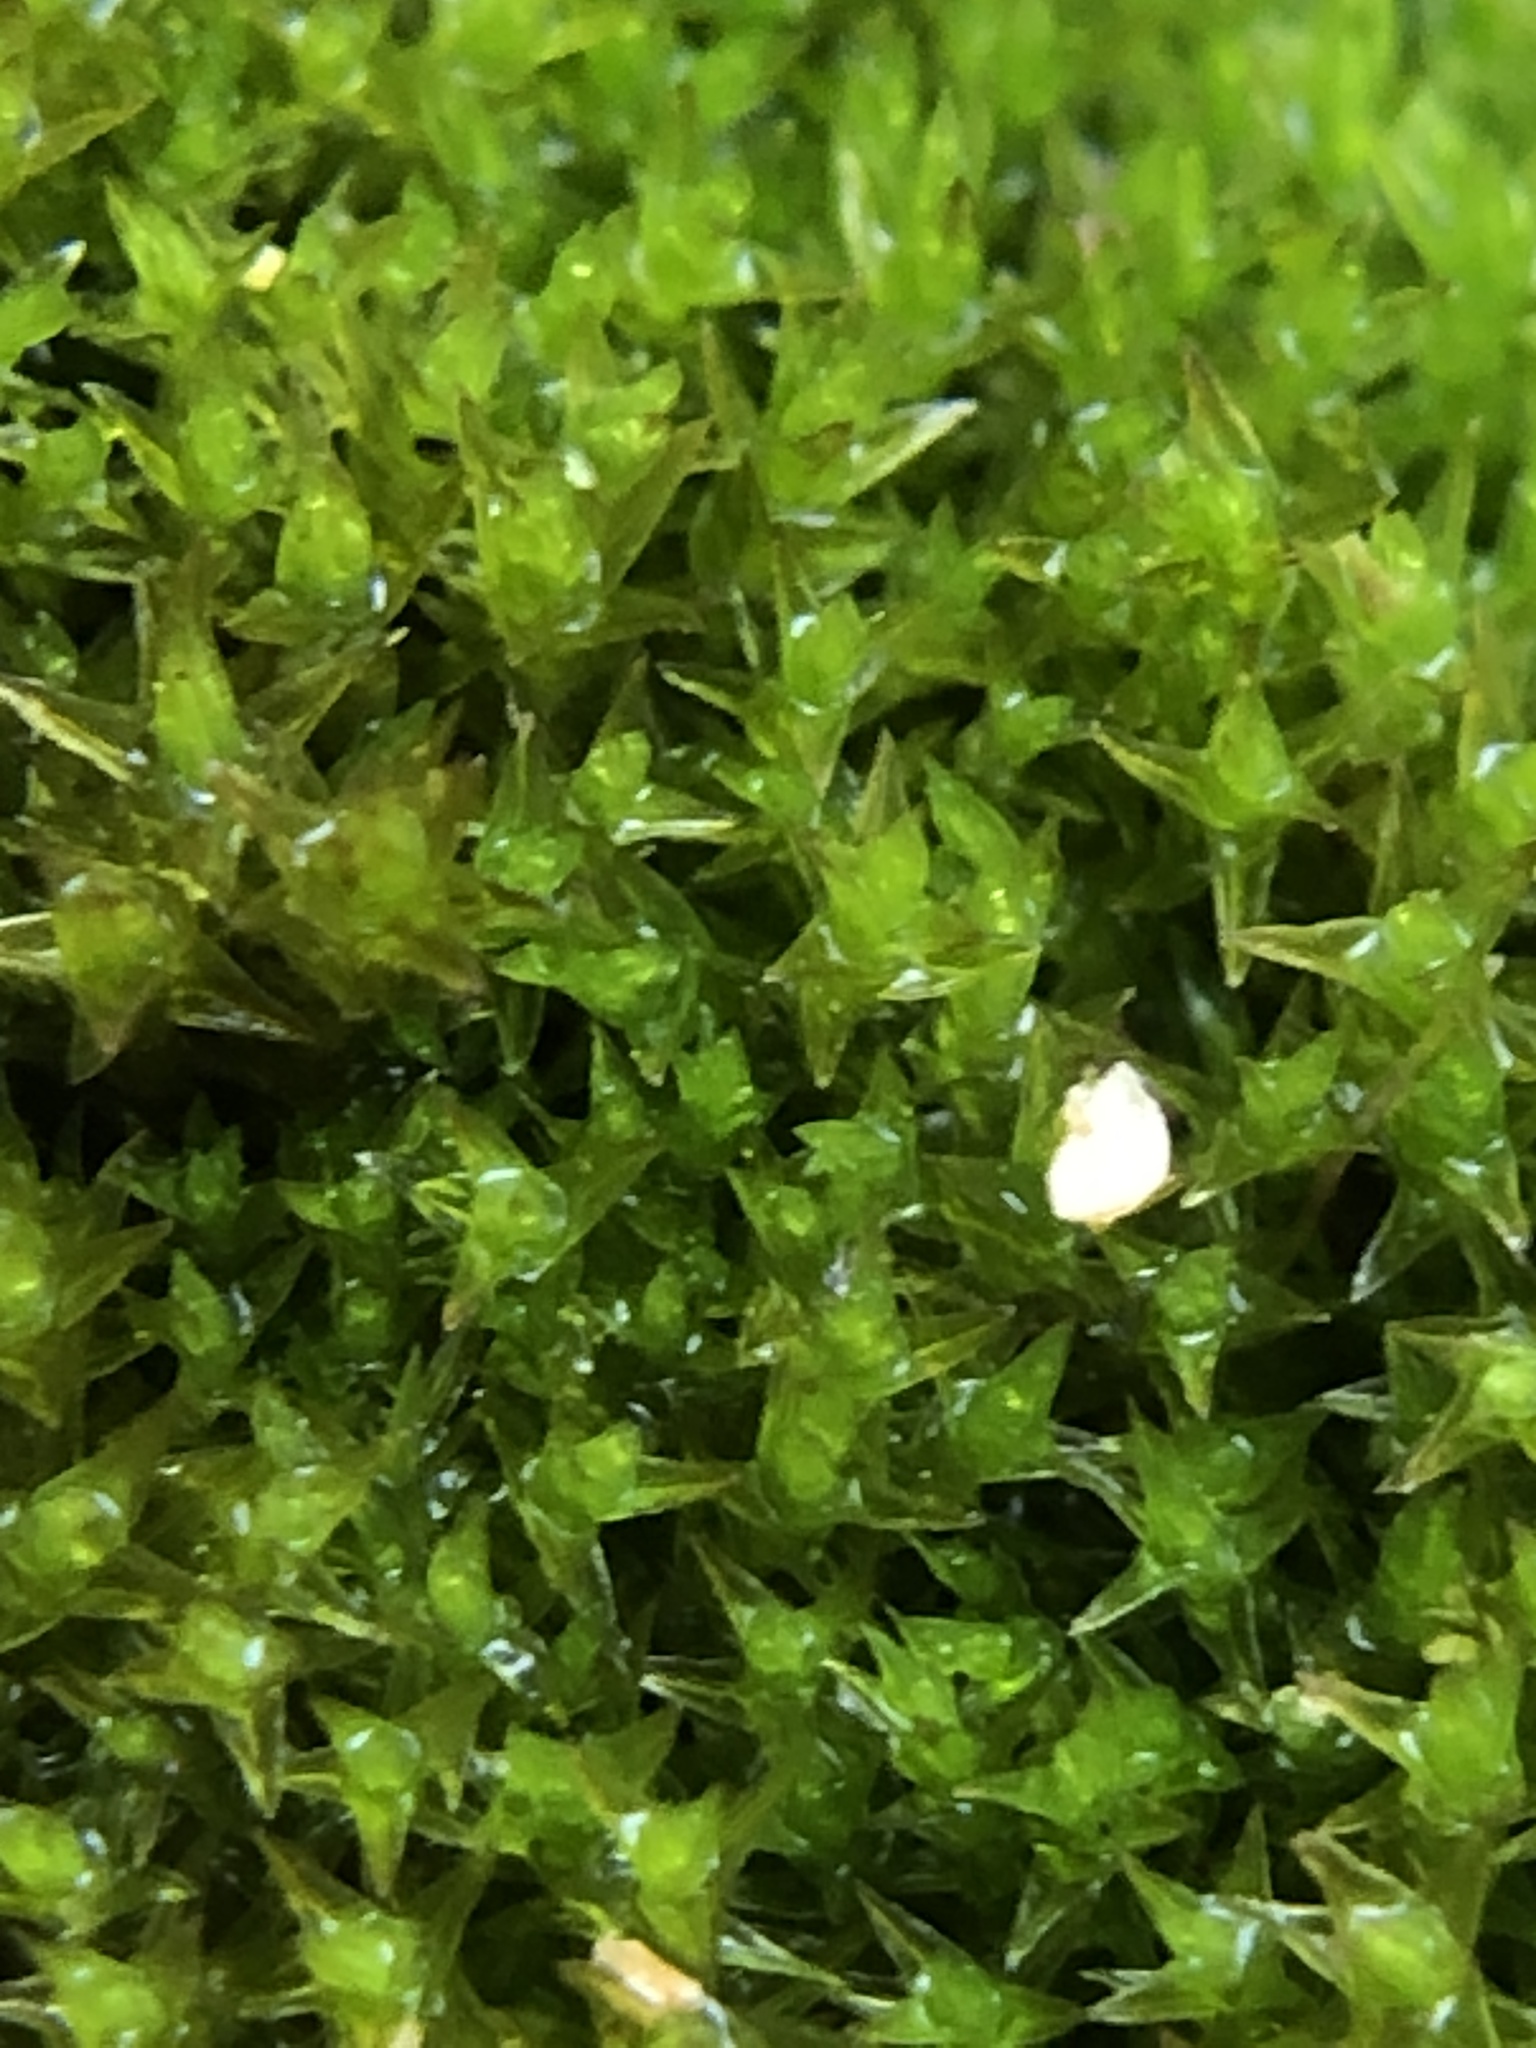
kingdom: Plantae
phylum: Bryophyta
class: Bryopsida
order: Pottiales
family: Pottiaceae
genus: Geheebia
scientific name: Geheebia lurida
